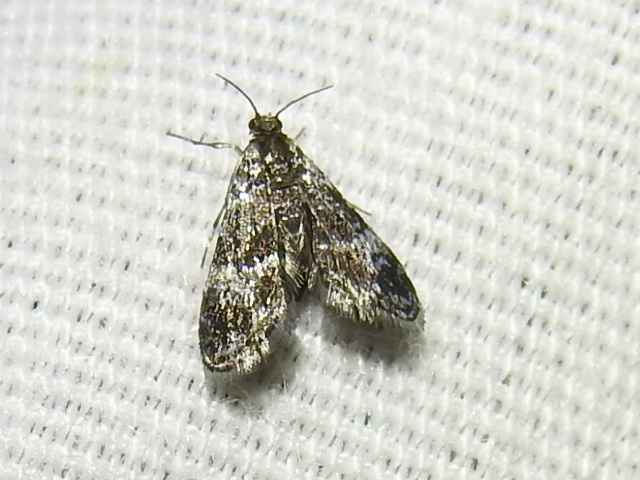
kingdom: Animalia
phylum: Arthropoda
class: Insecta
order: Lepidoptera
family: Crambidae
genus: Elophila
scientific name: Elophila tinealis
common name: Black duckweed moth
